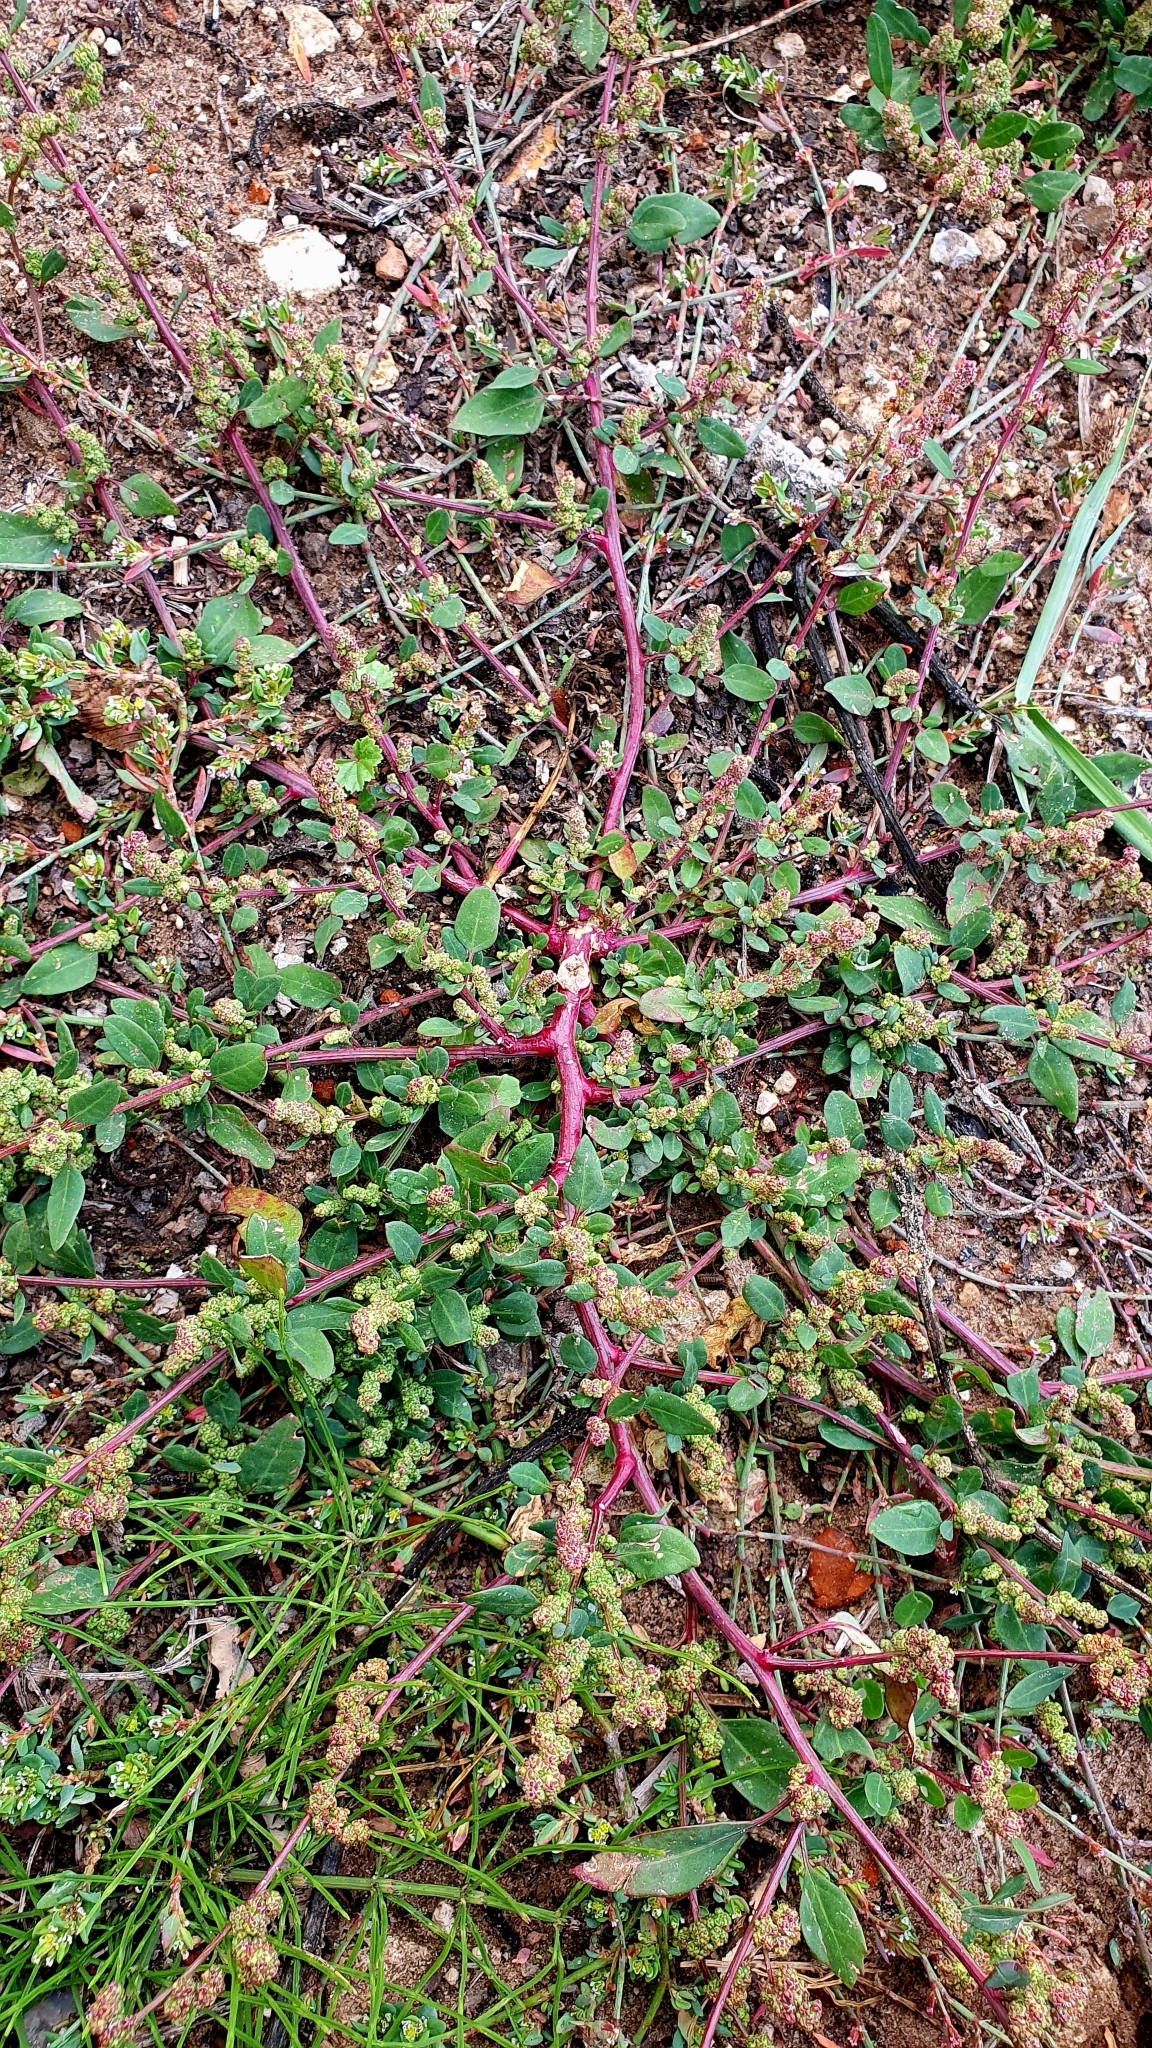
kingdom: Plantae
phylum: Tracheophyta
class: Magnoliopsida
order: Caryophyllales
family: Amaranthaceae
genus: Oxybasis
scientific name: Oxybasis glauca
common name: Glaucous goosefoot
